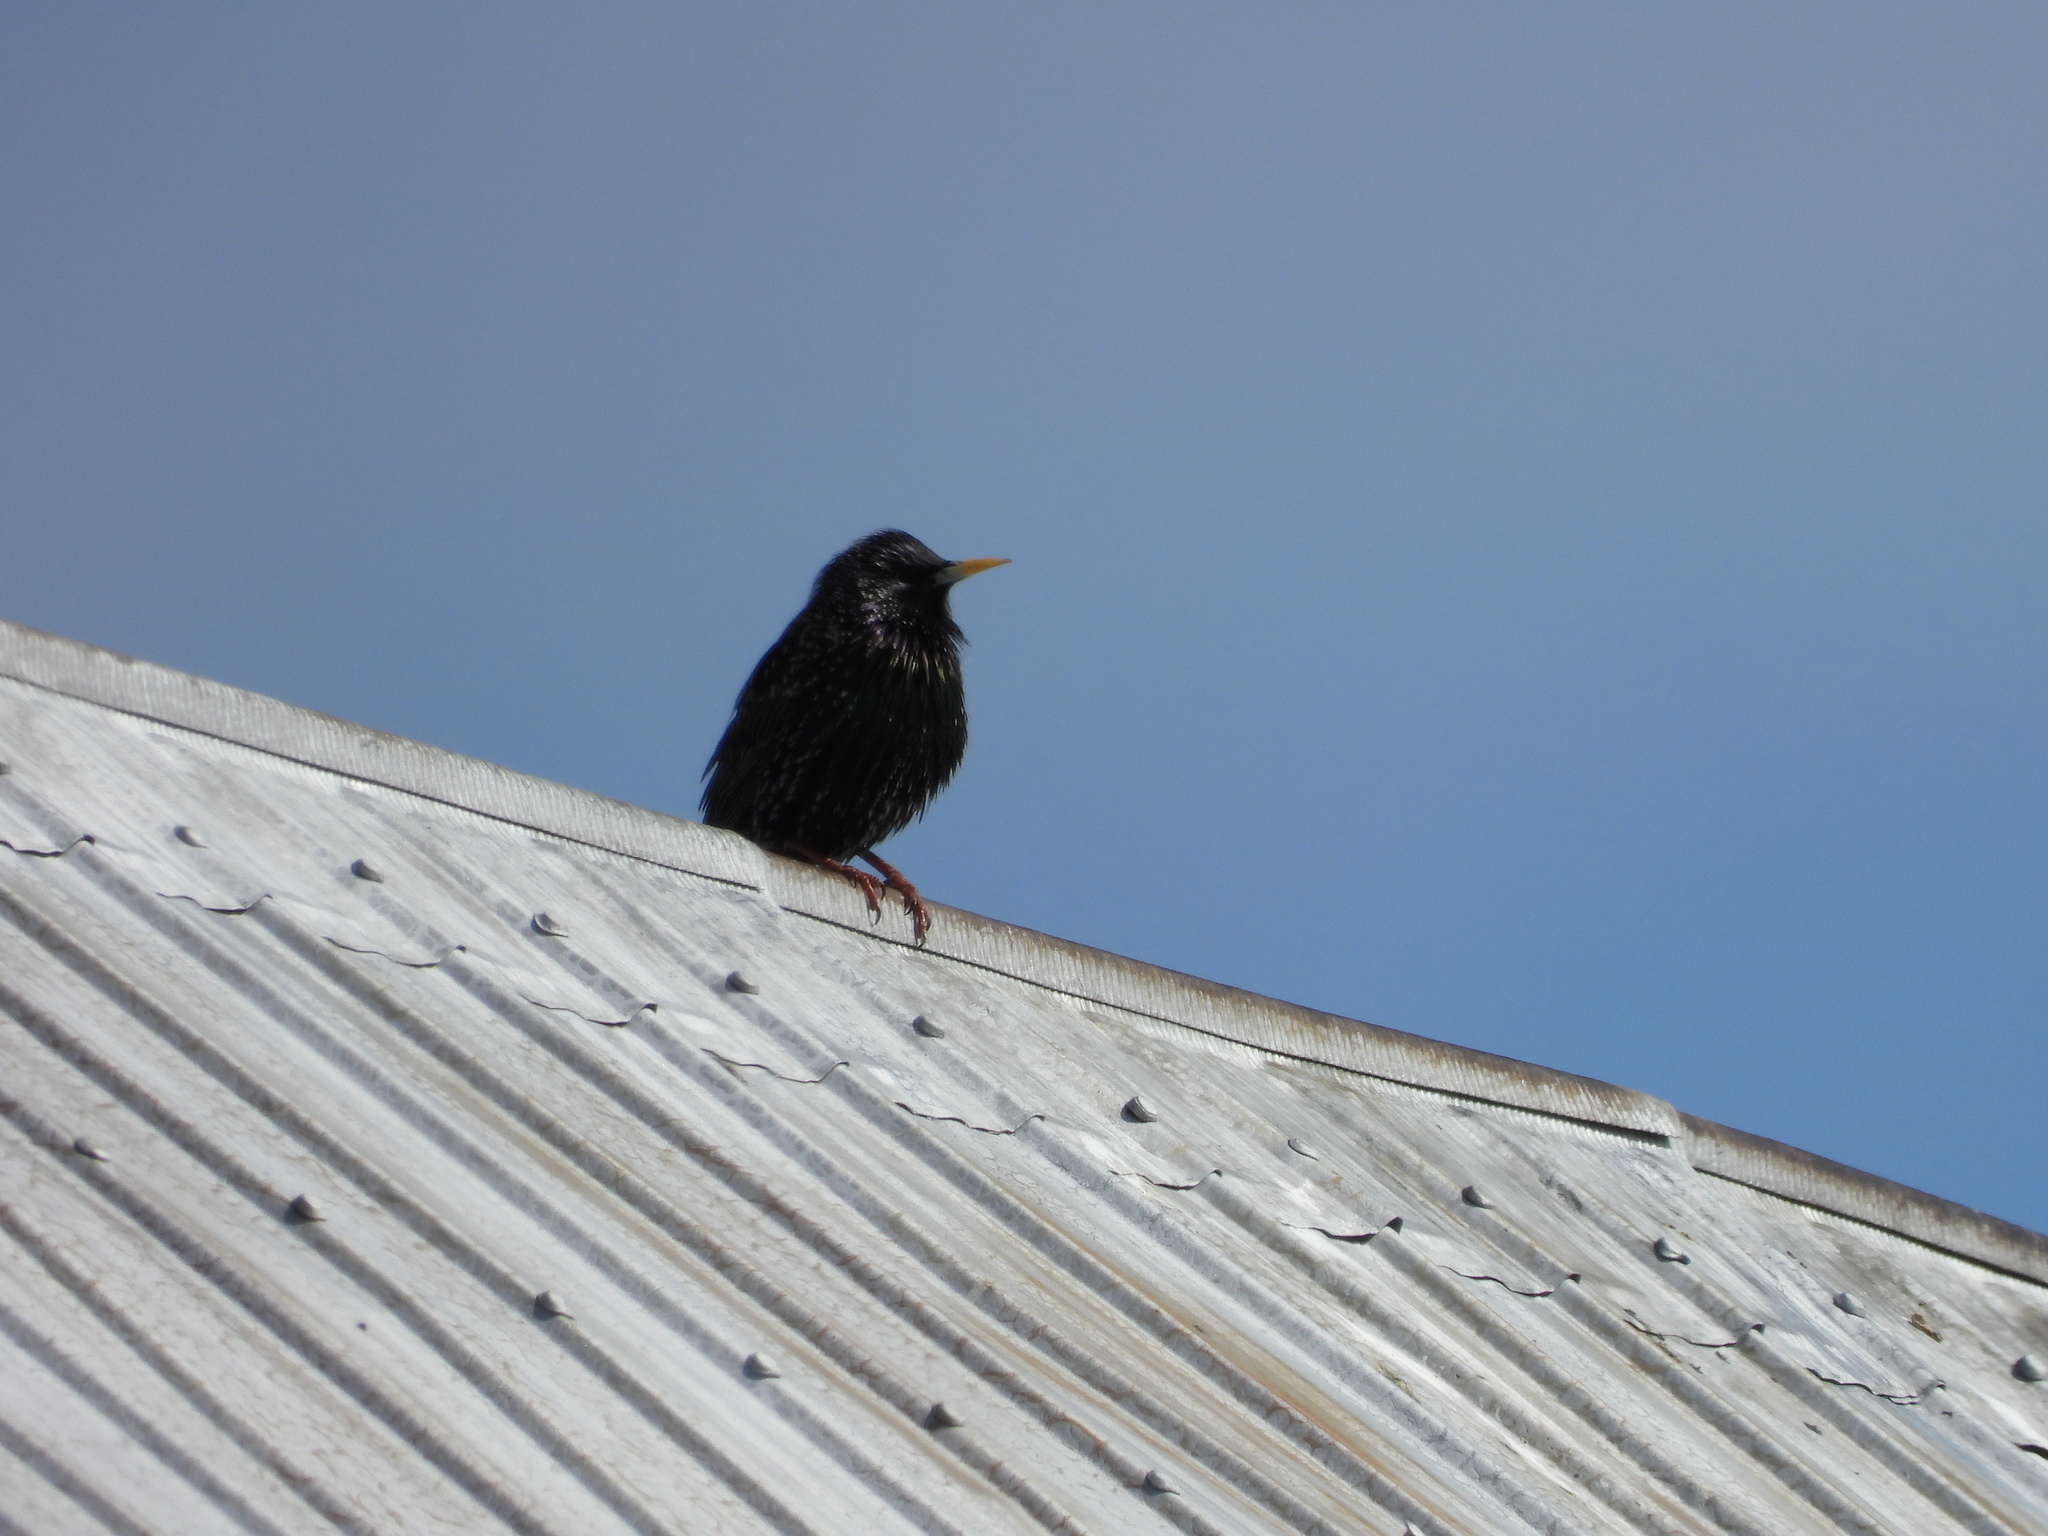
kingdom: Animalia
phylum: Chordata
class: Aves
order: Passeriformes
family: Sturnidae
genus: Sturnus
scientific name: Sturnus vulgaris
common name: Common starling
